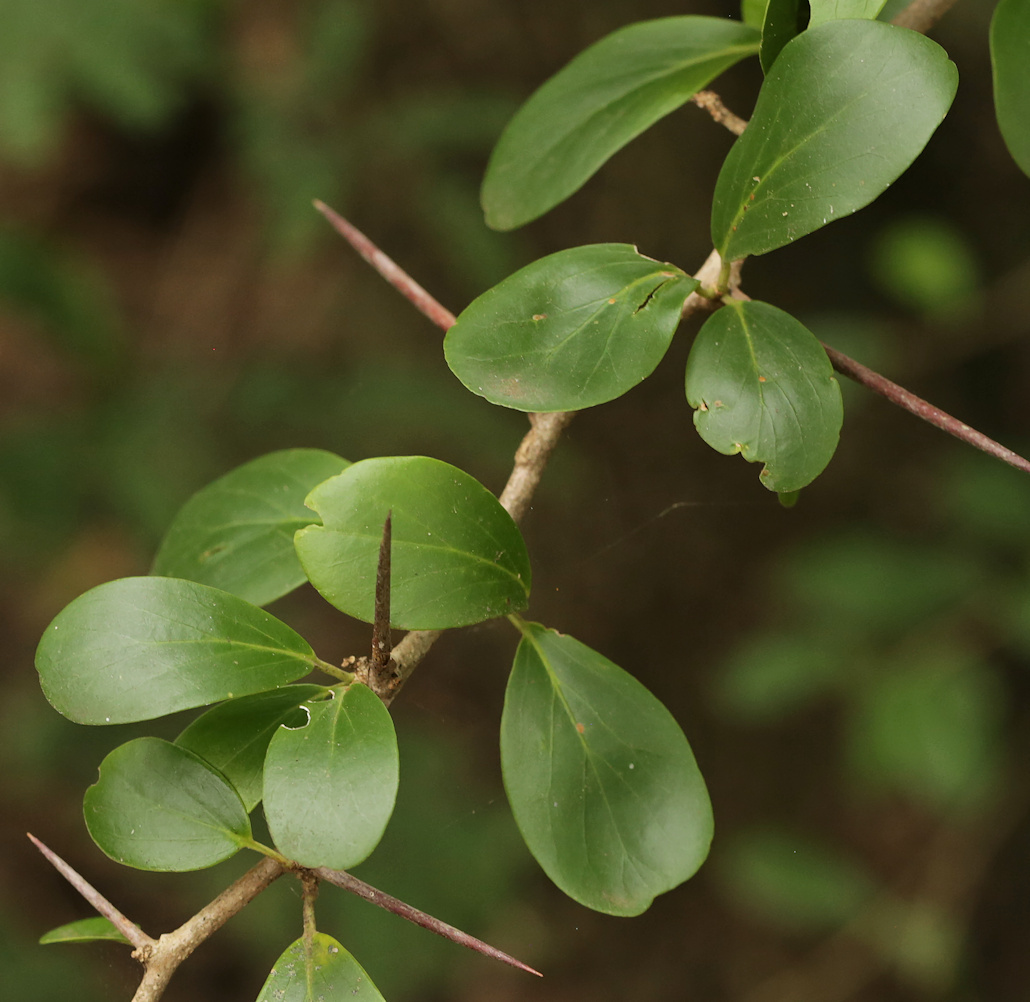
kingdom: Plantae
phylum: Tracheophyta
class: Magnoliopsida
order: Malpighiales
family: Salicaceae
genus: Dovyalis
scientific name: Dovyalis caffra
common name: Kei-apple
